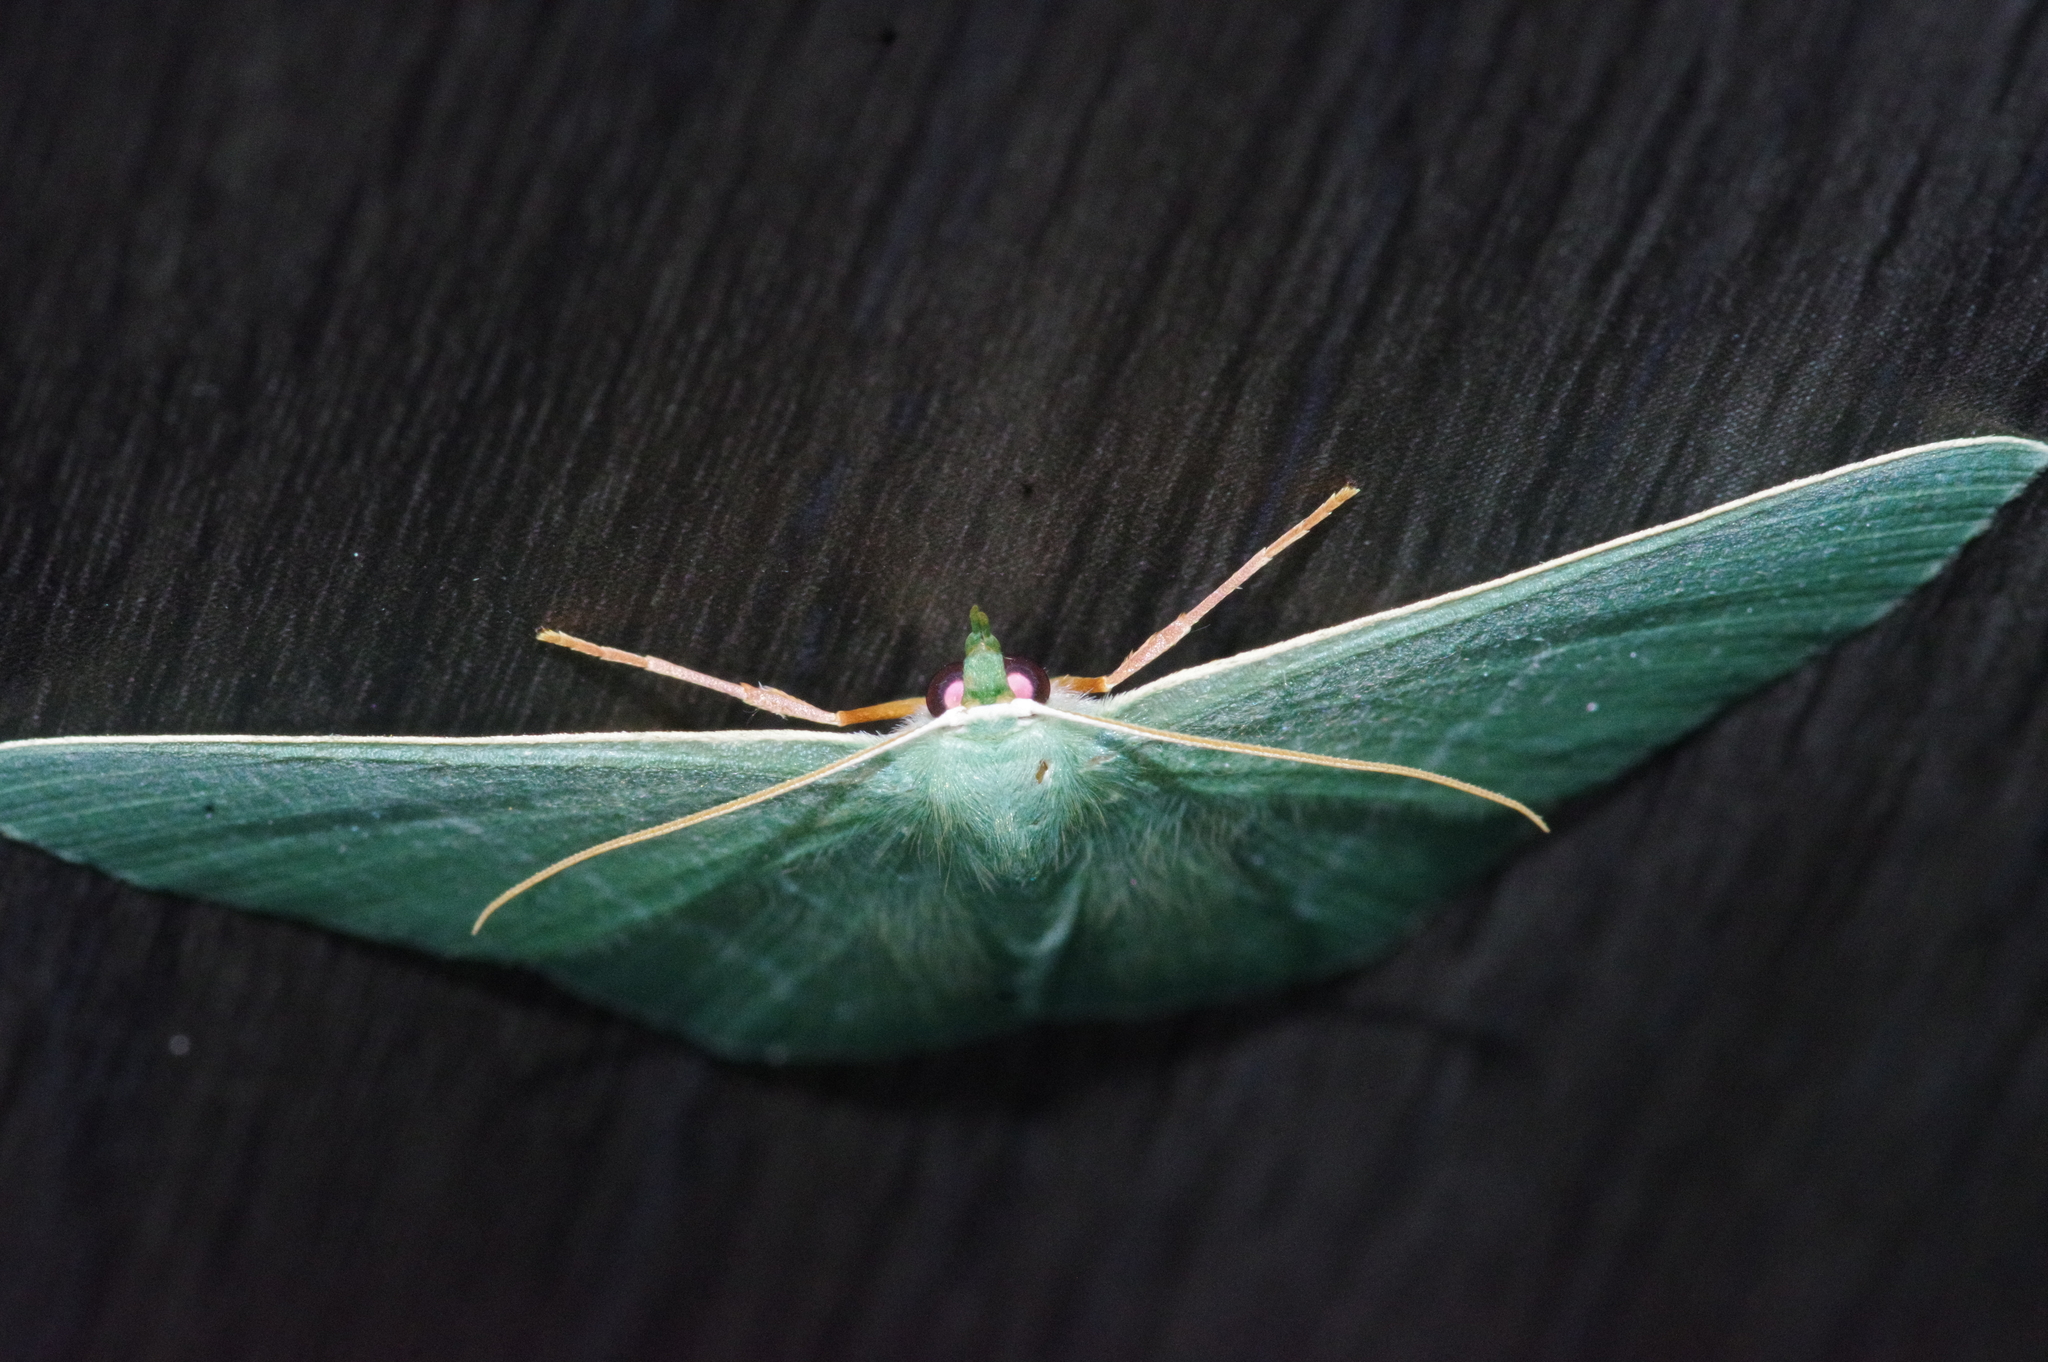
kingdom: Animalia
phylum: Arthropoda
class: Insecta
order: Lepidoptera
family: Geometridae
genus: Thalassodes
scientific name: Thalassodes immissaria
